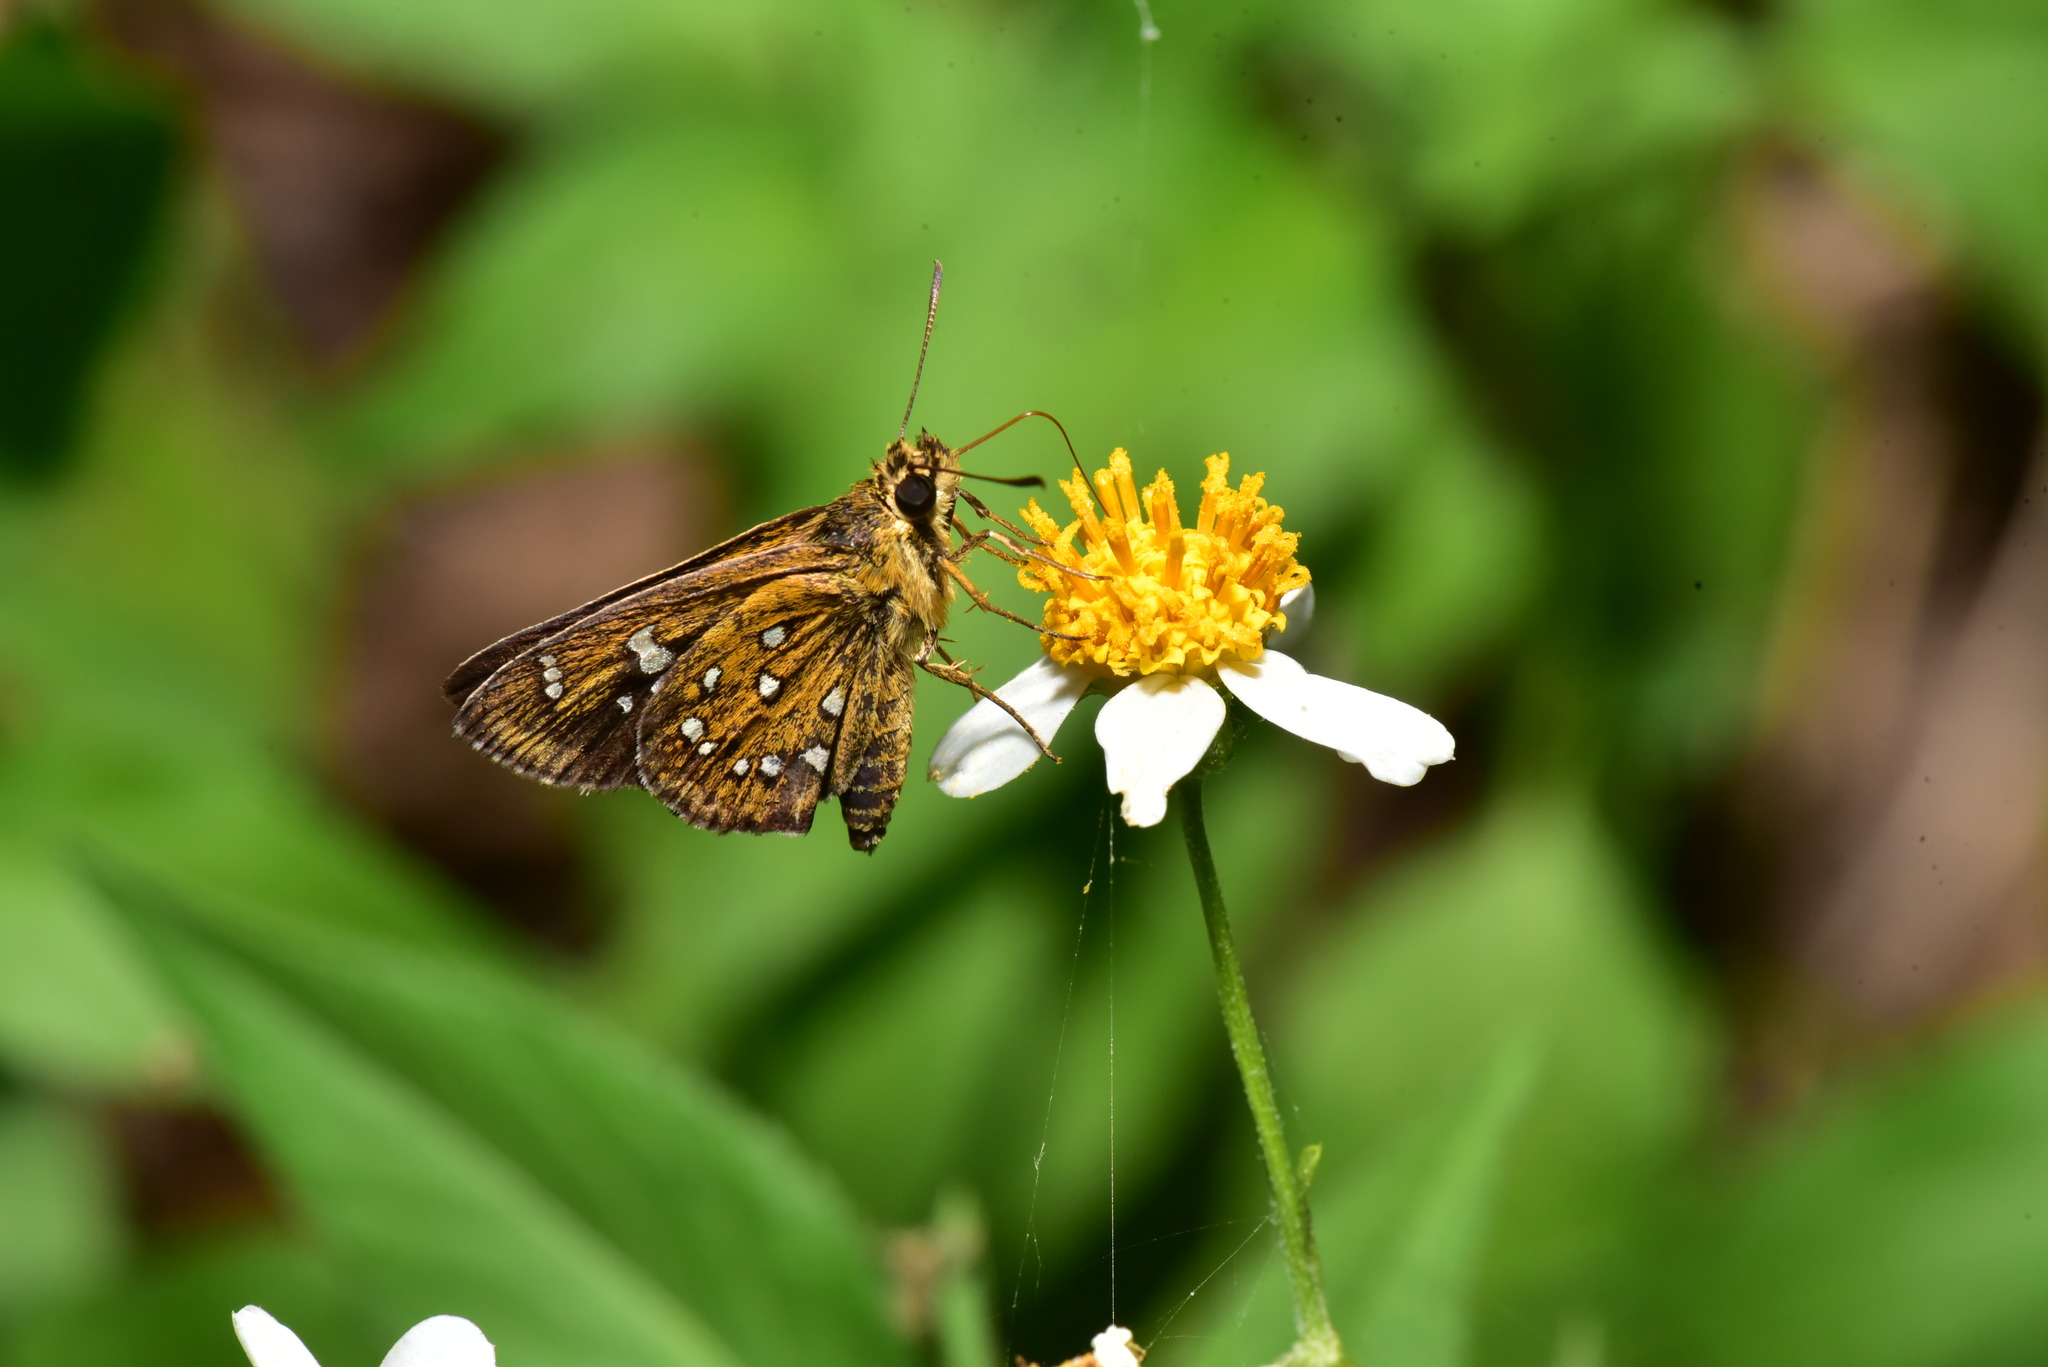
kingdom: Animalia
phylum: Arthropoda
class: Insecta
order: Lepidoptera
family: Hesperiidae
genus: Isoteinon
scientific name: Isoteinon lamprospilus
